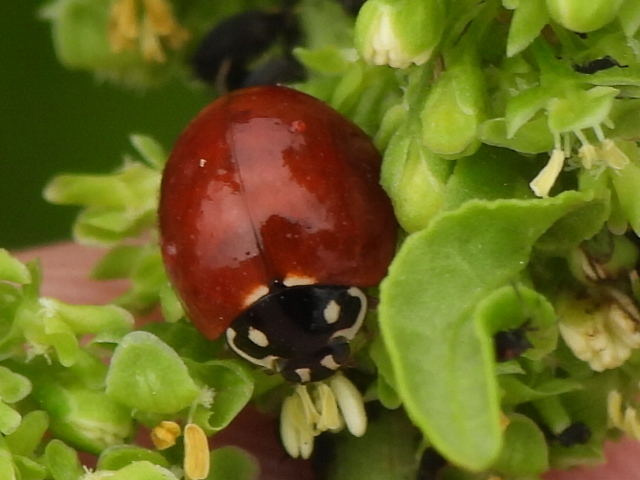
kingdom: Animalia
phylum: Arthropoda
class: Insecta
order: Coleoptera
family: Coccinellidae
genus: Cycloneda
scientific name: Cycloneda sanguinea
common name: Ladybird beetle
